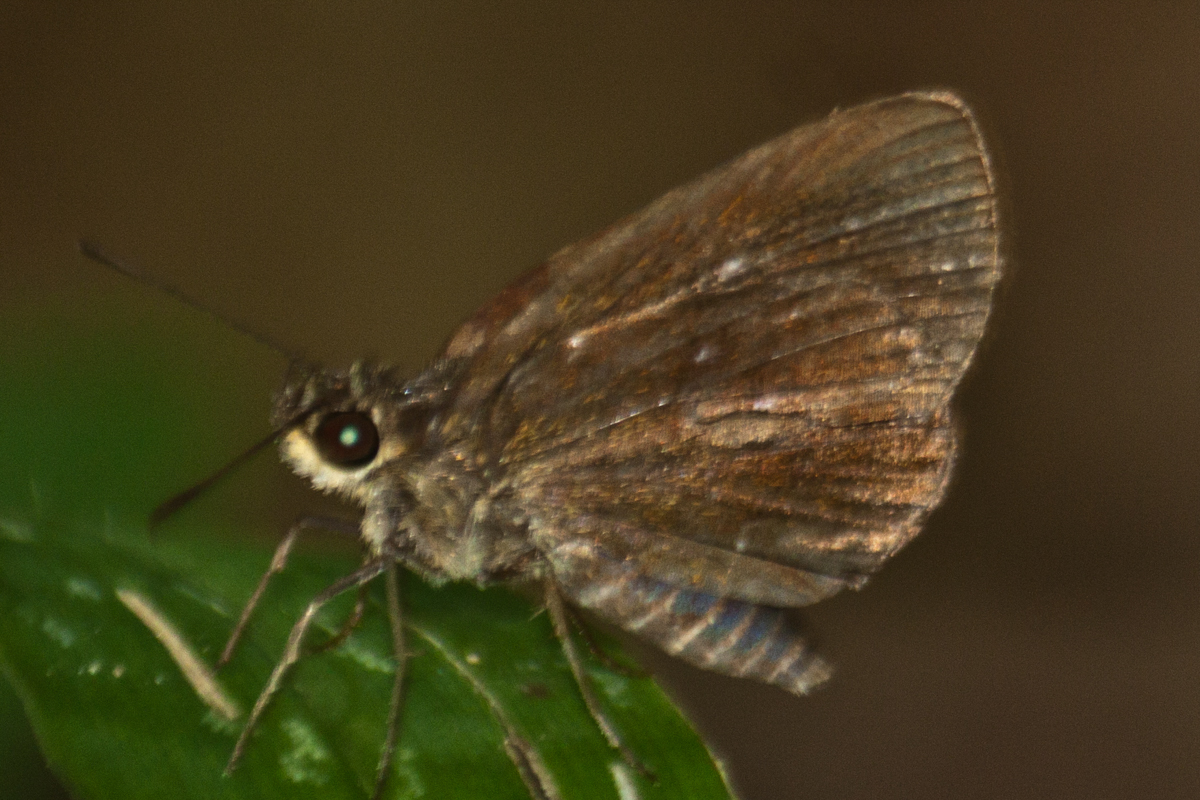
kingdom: Animalia
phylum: Arthropoda
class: Insecta
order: Lepidoptera
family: Hesperiidae
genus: Iambrix
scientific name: Iambrix salsala
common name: Chestnut bob
